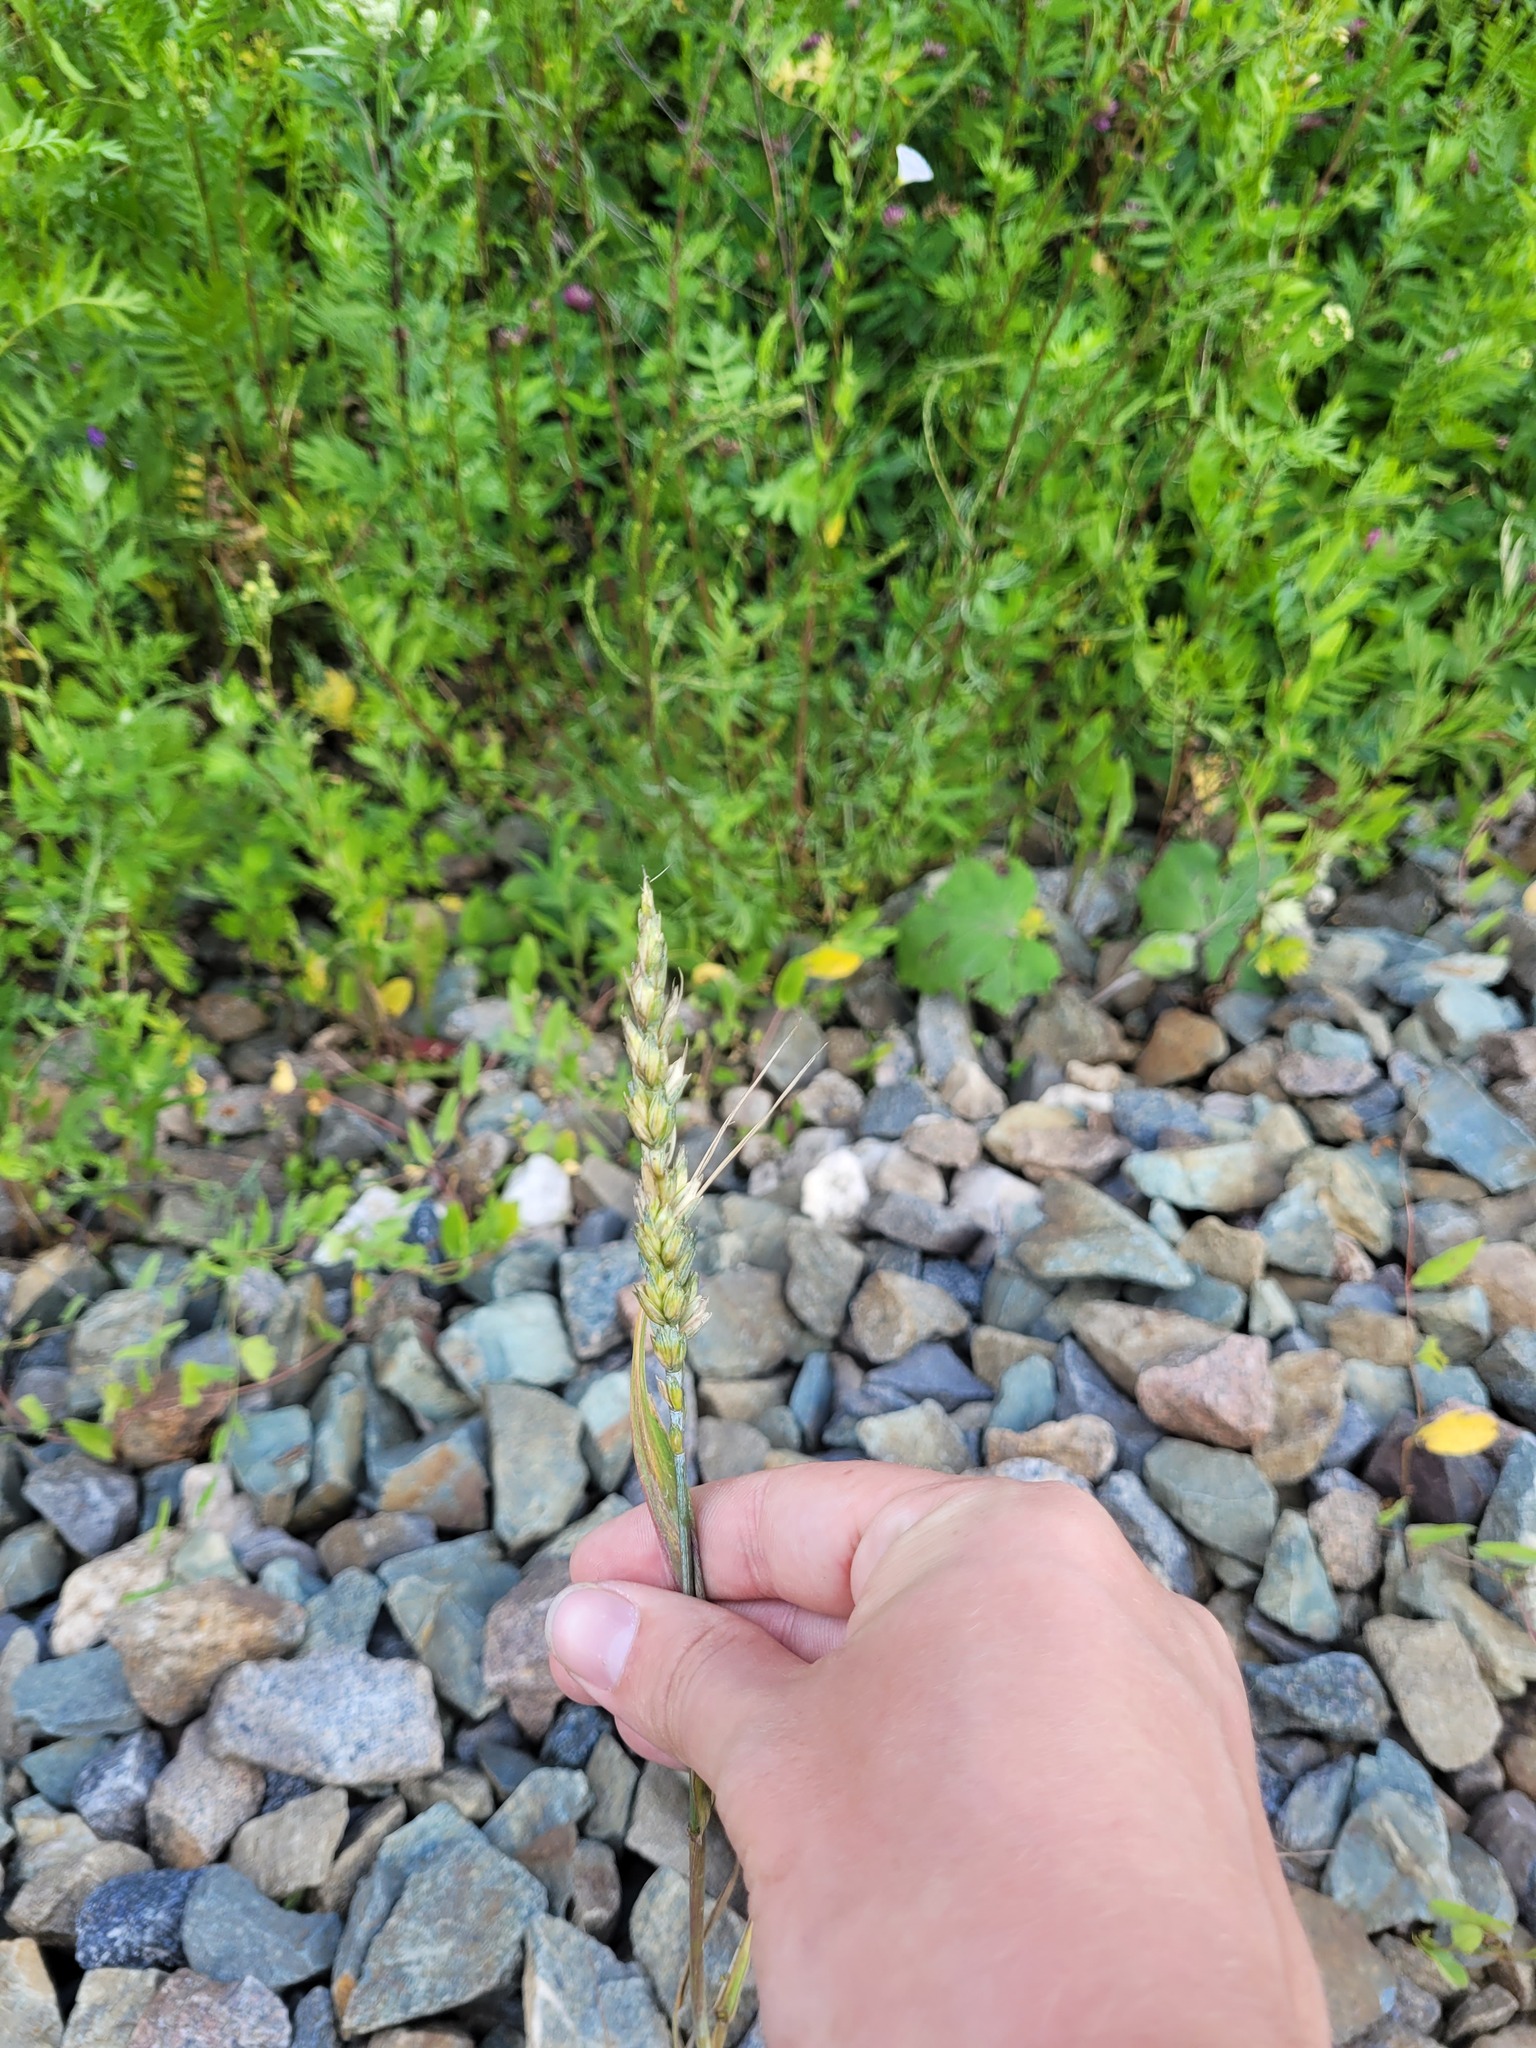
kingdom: Plantae
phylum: Tracheophyta
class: Liliopsida
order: Poales
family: Poaceae
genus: Triticum
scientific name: Triticum aestivum
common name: Common wheat
